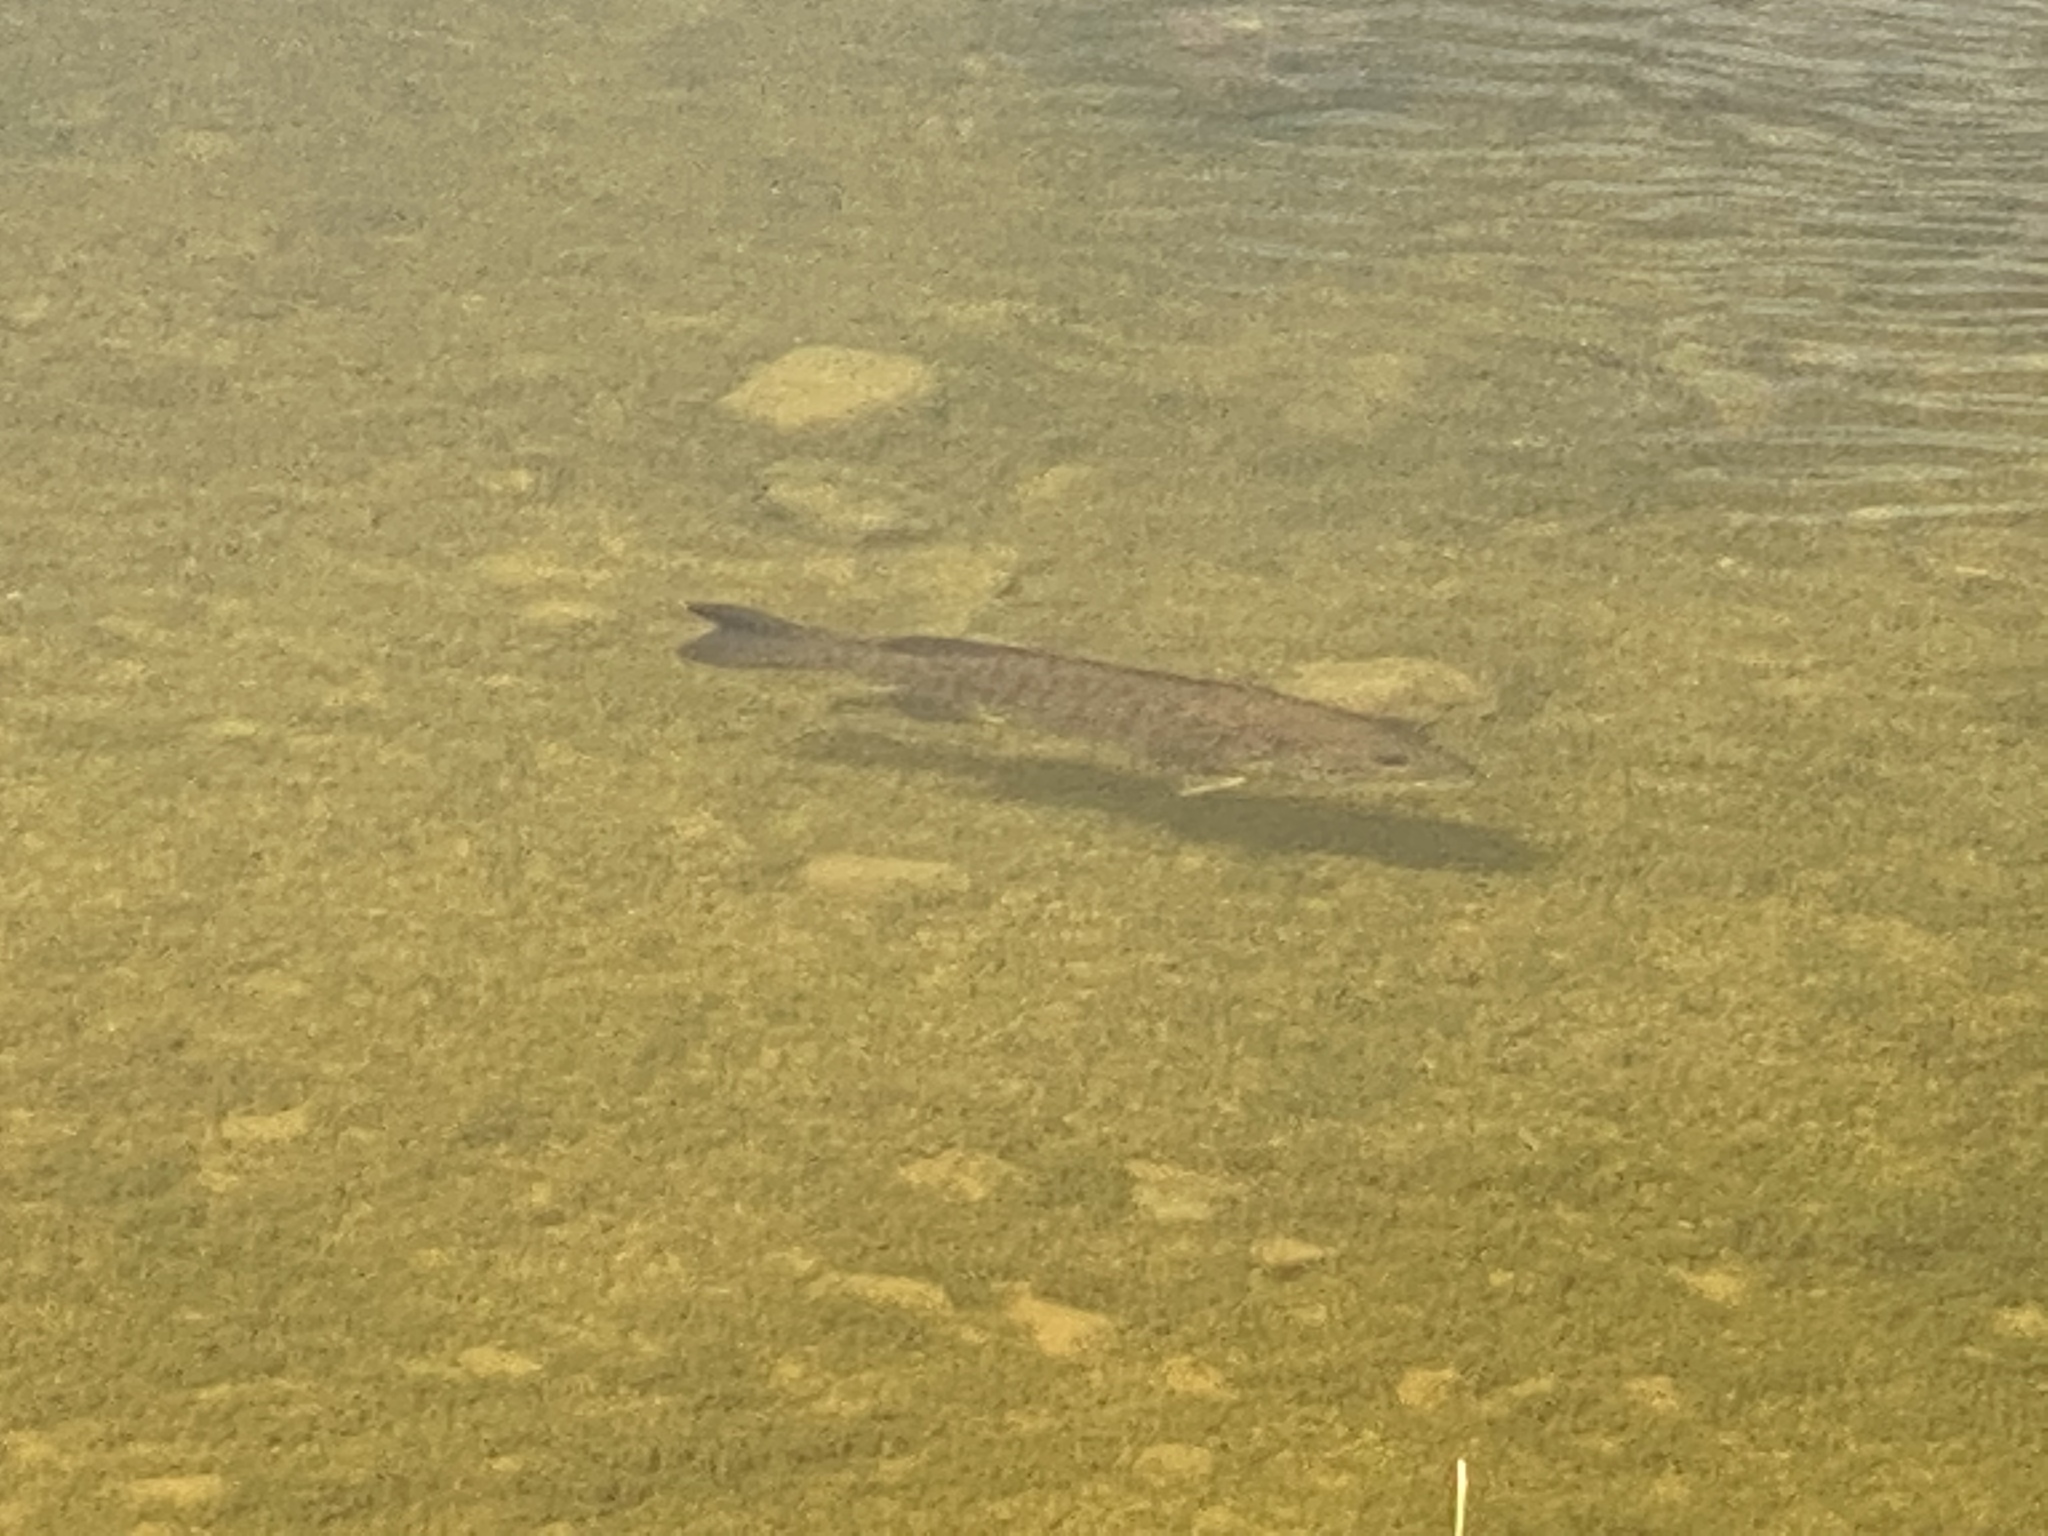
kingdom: Animalia
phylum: Chordata
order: Perciformes
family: Centrarchidae
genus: Micropterus
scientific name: Micropterus dolomieu
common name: Smallmouth bass
